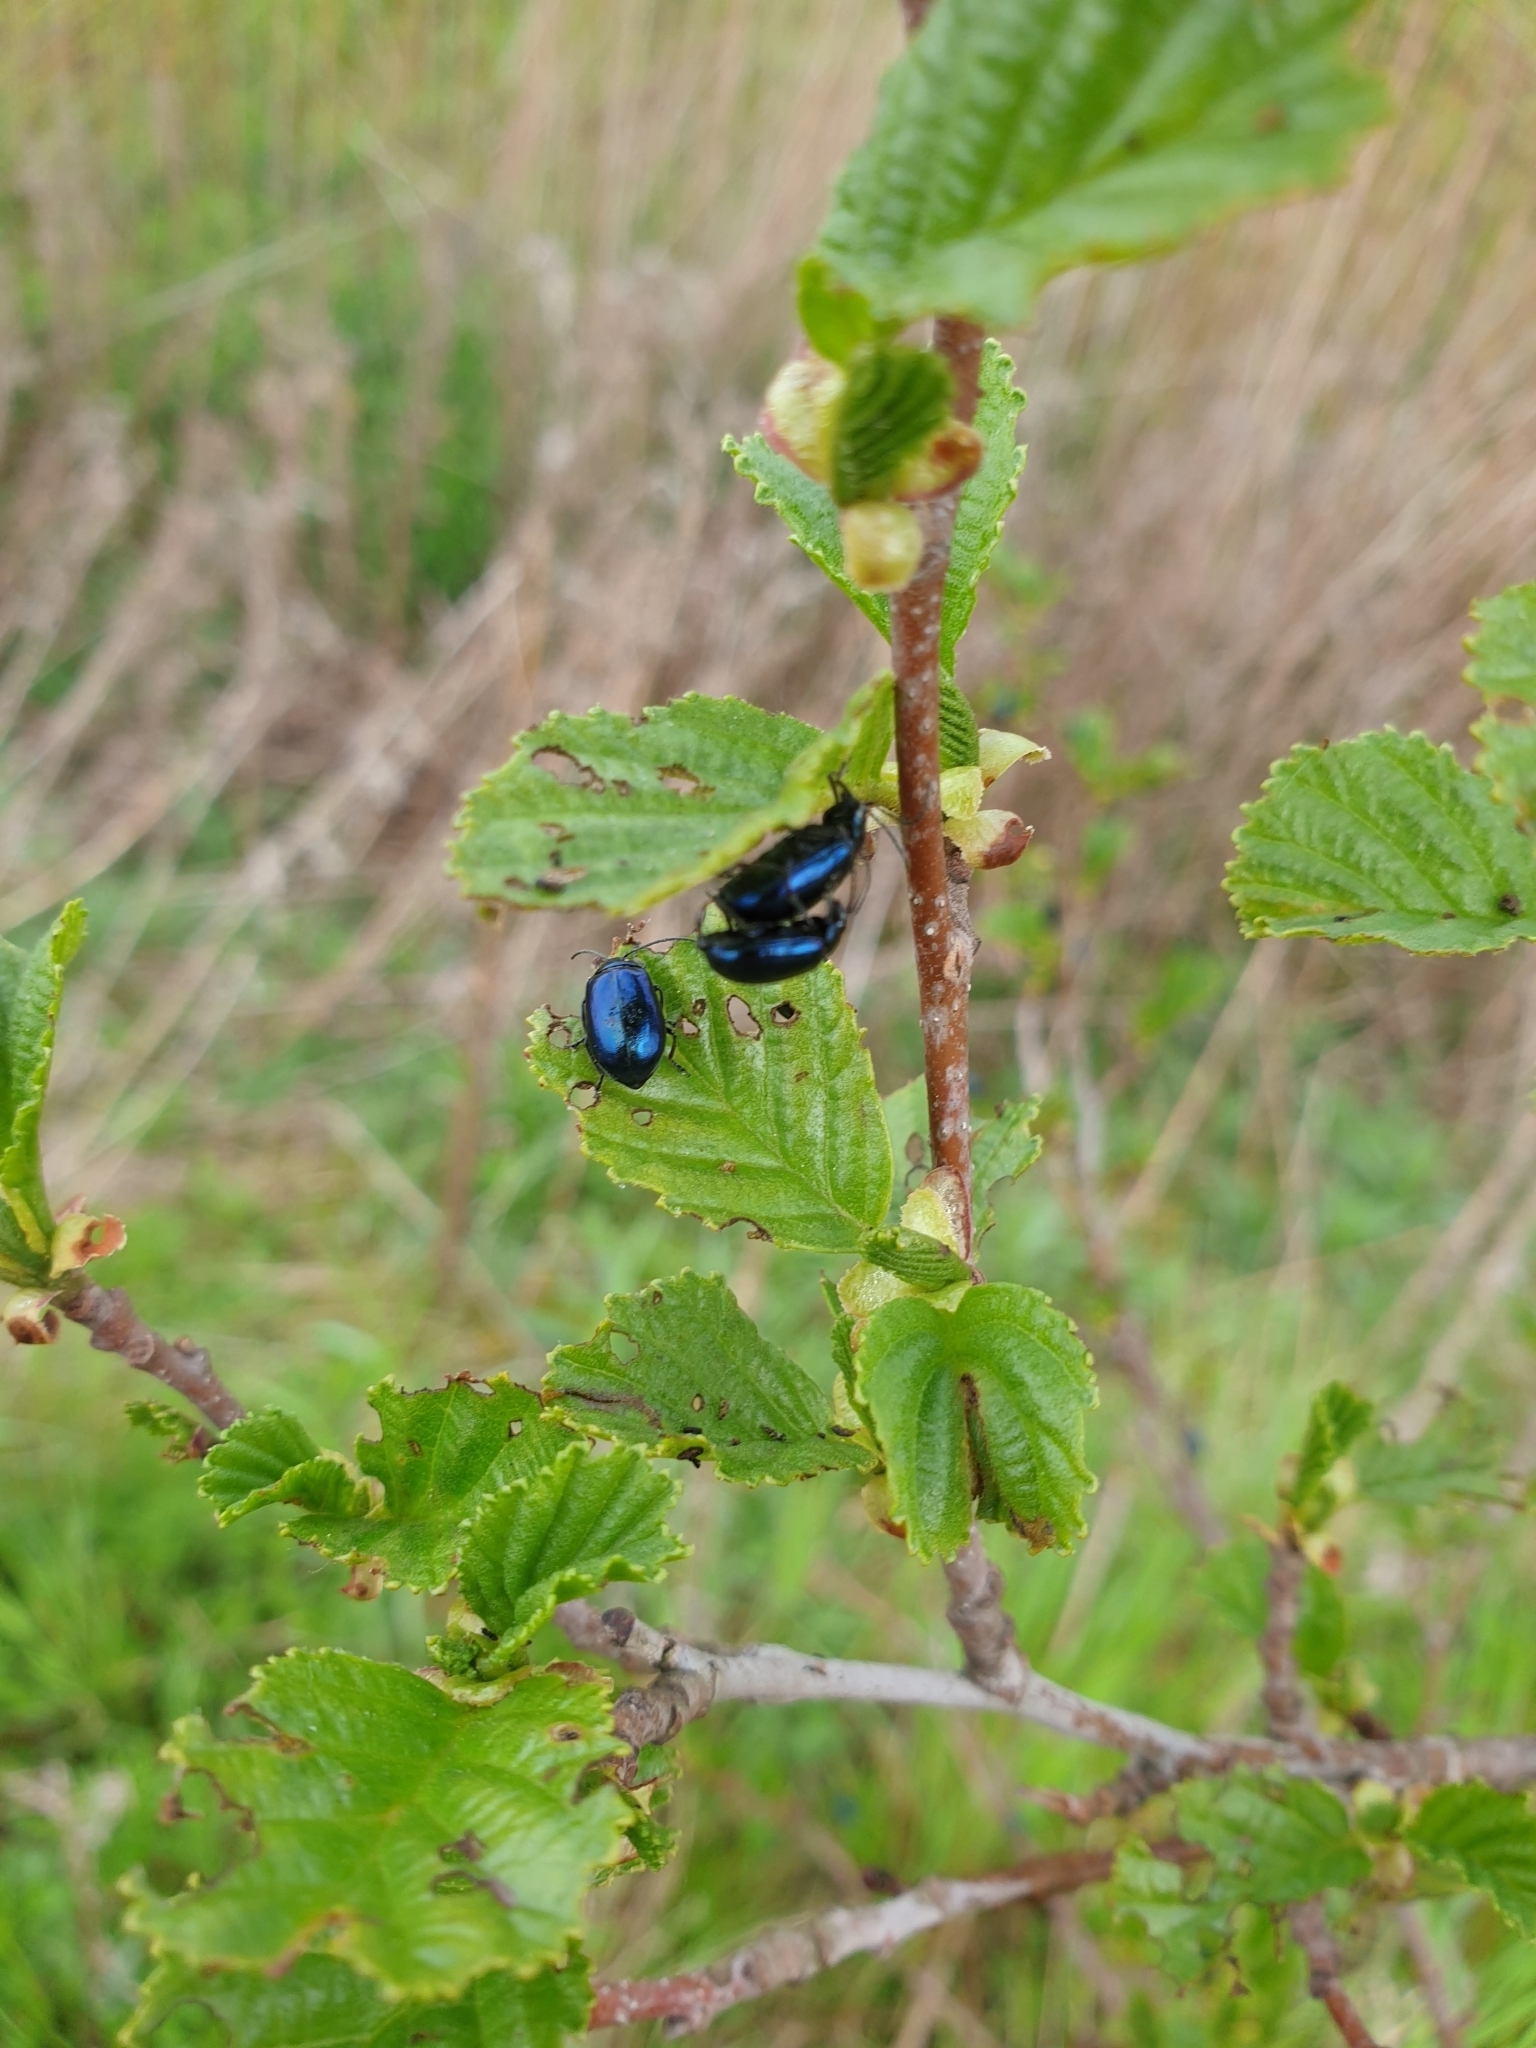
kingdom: Animalia
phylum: Arthropoda
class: Insecta
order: Coleoptera
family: Chrysomelidae
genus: Agelastica
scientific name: Agelastica alni
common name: Alder leaf beetle
